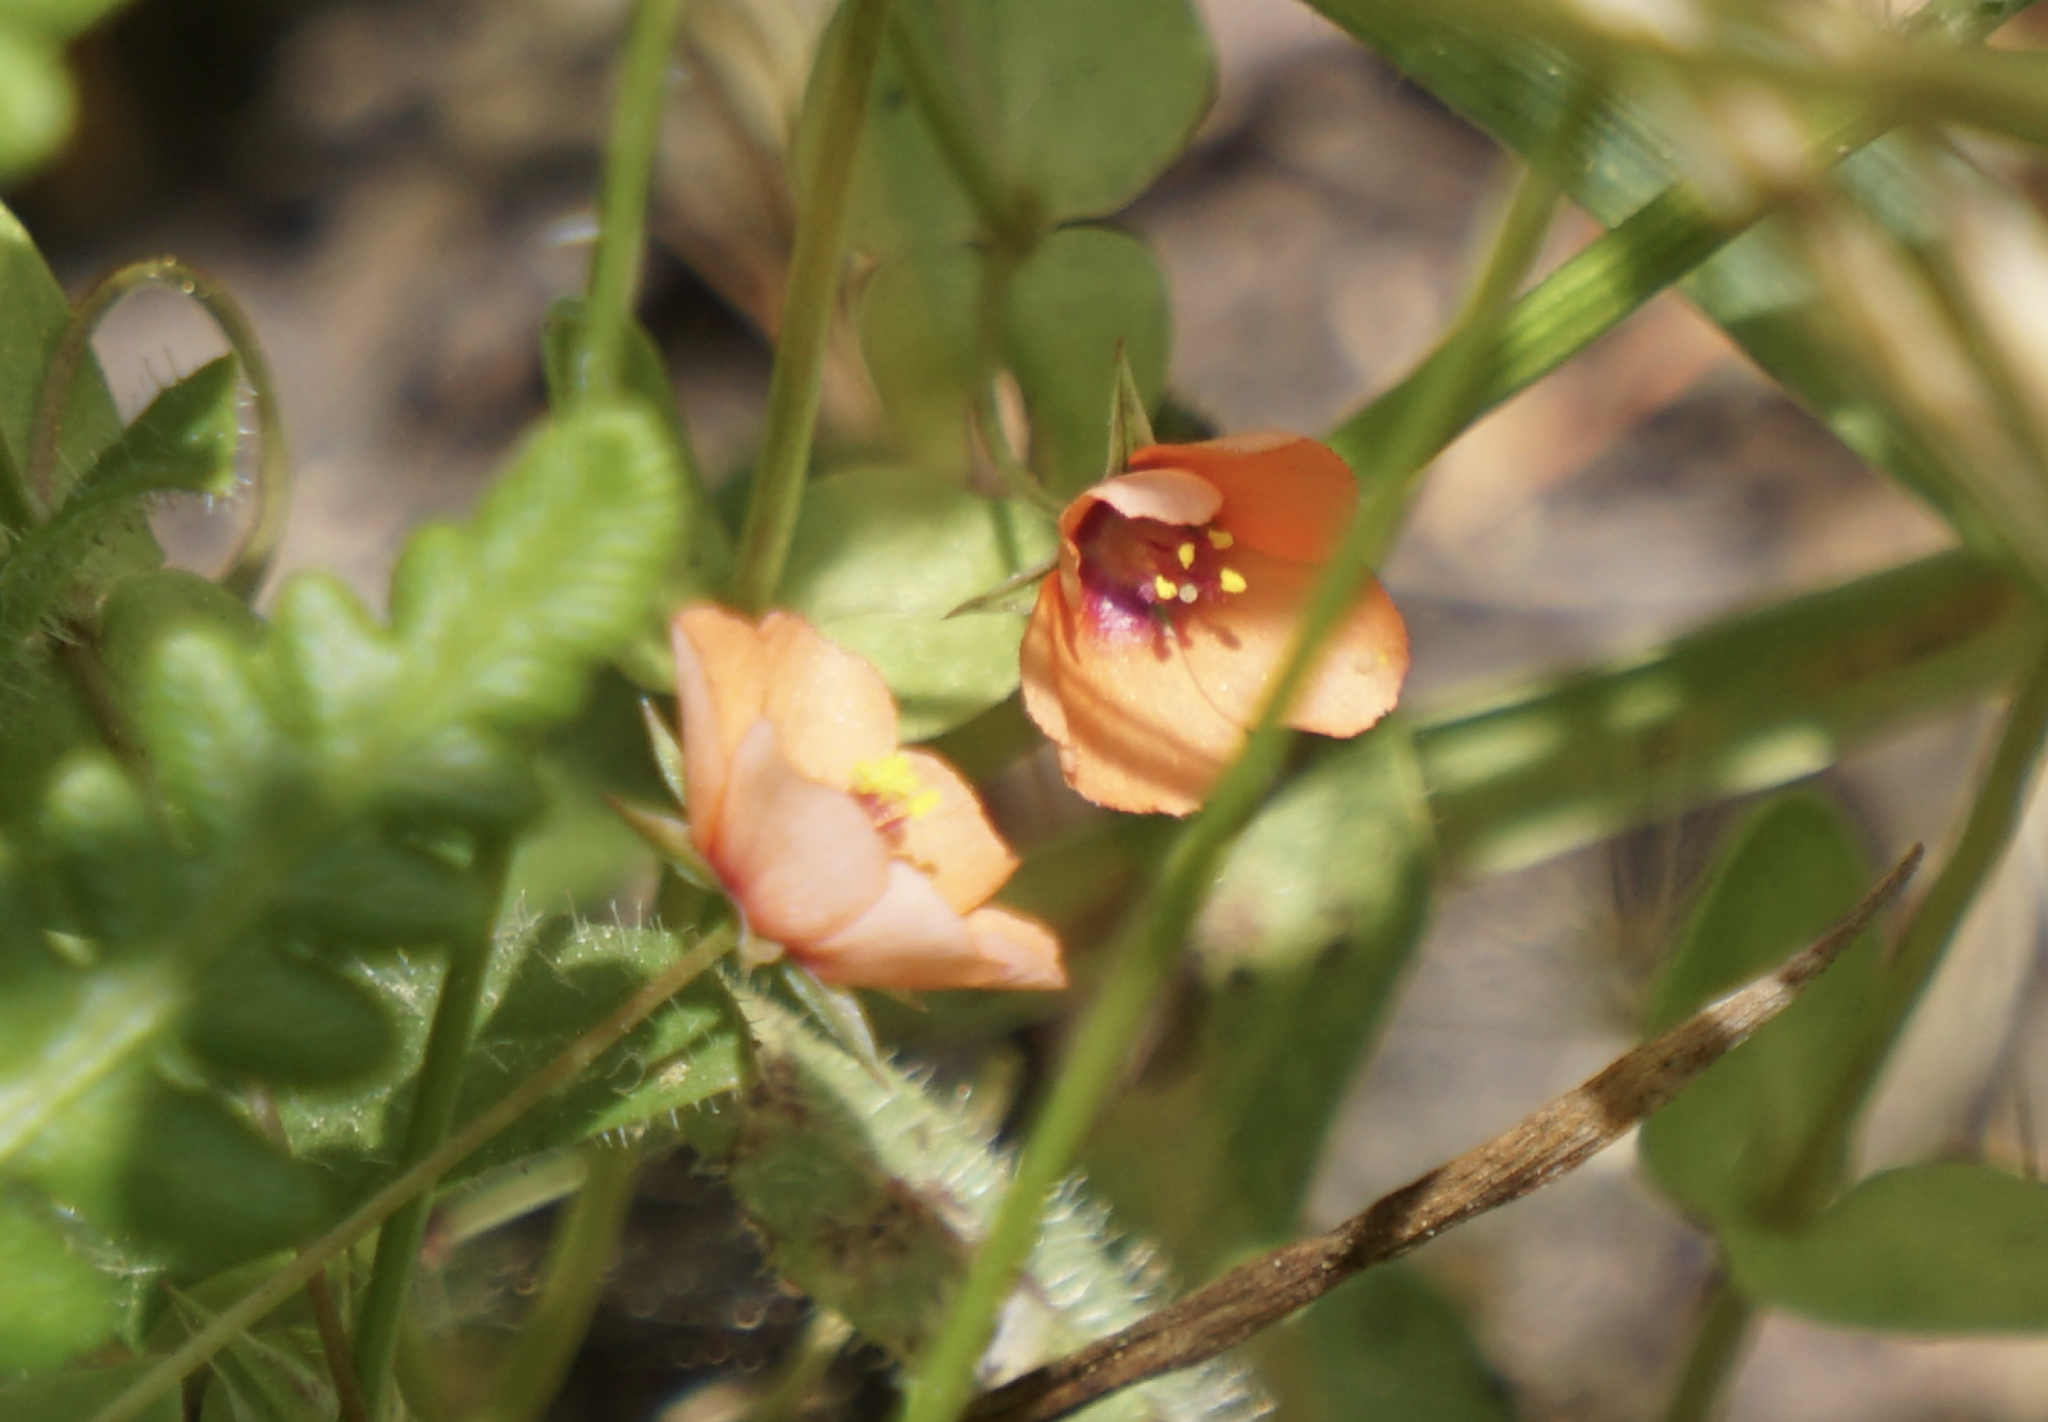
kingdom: Plantae
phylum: Tracheophyta
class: Magnoliopsida
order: Ericales
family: Primulaceae
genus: Lysimachia
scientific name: Lysimachia arvensis
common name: Scarlet pimpernel
